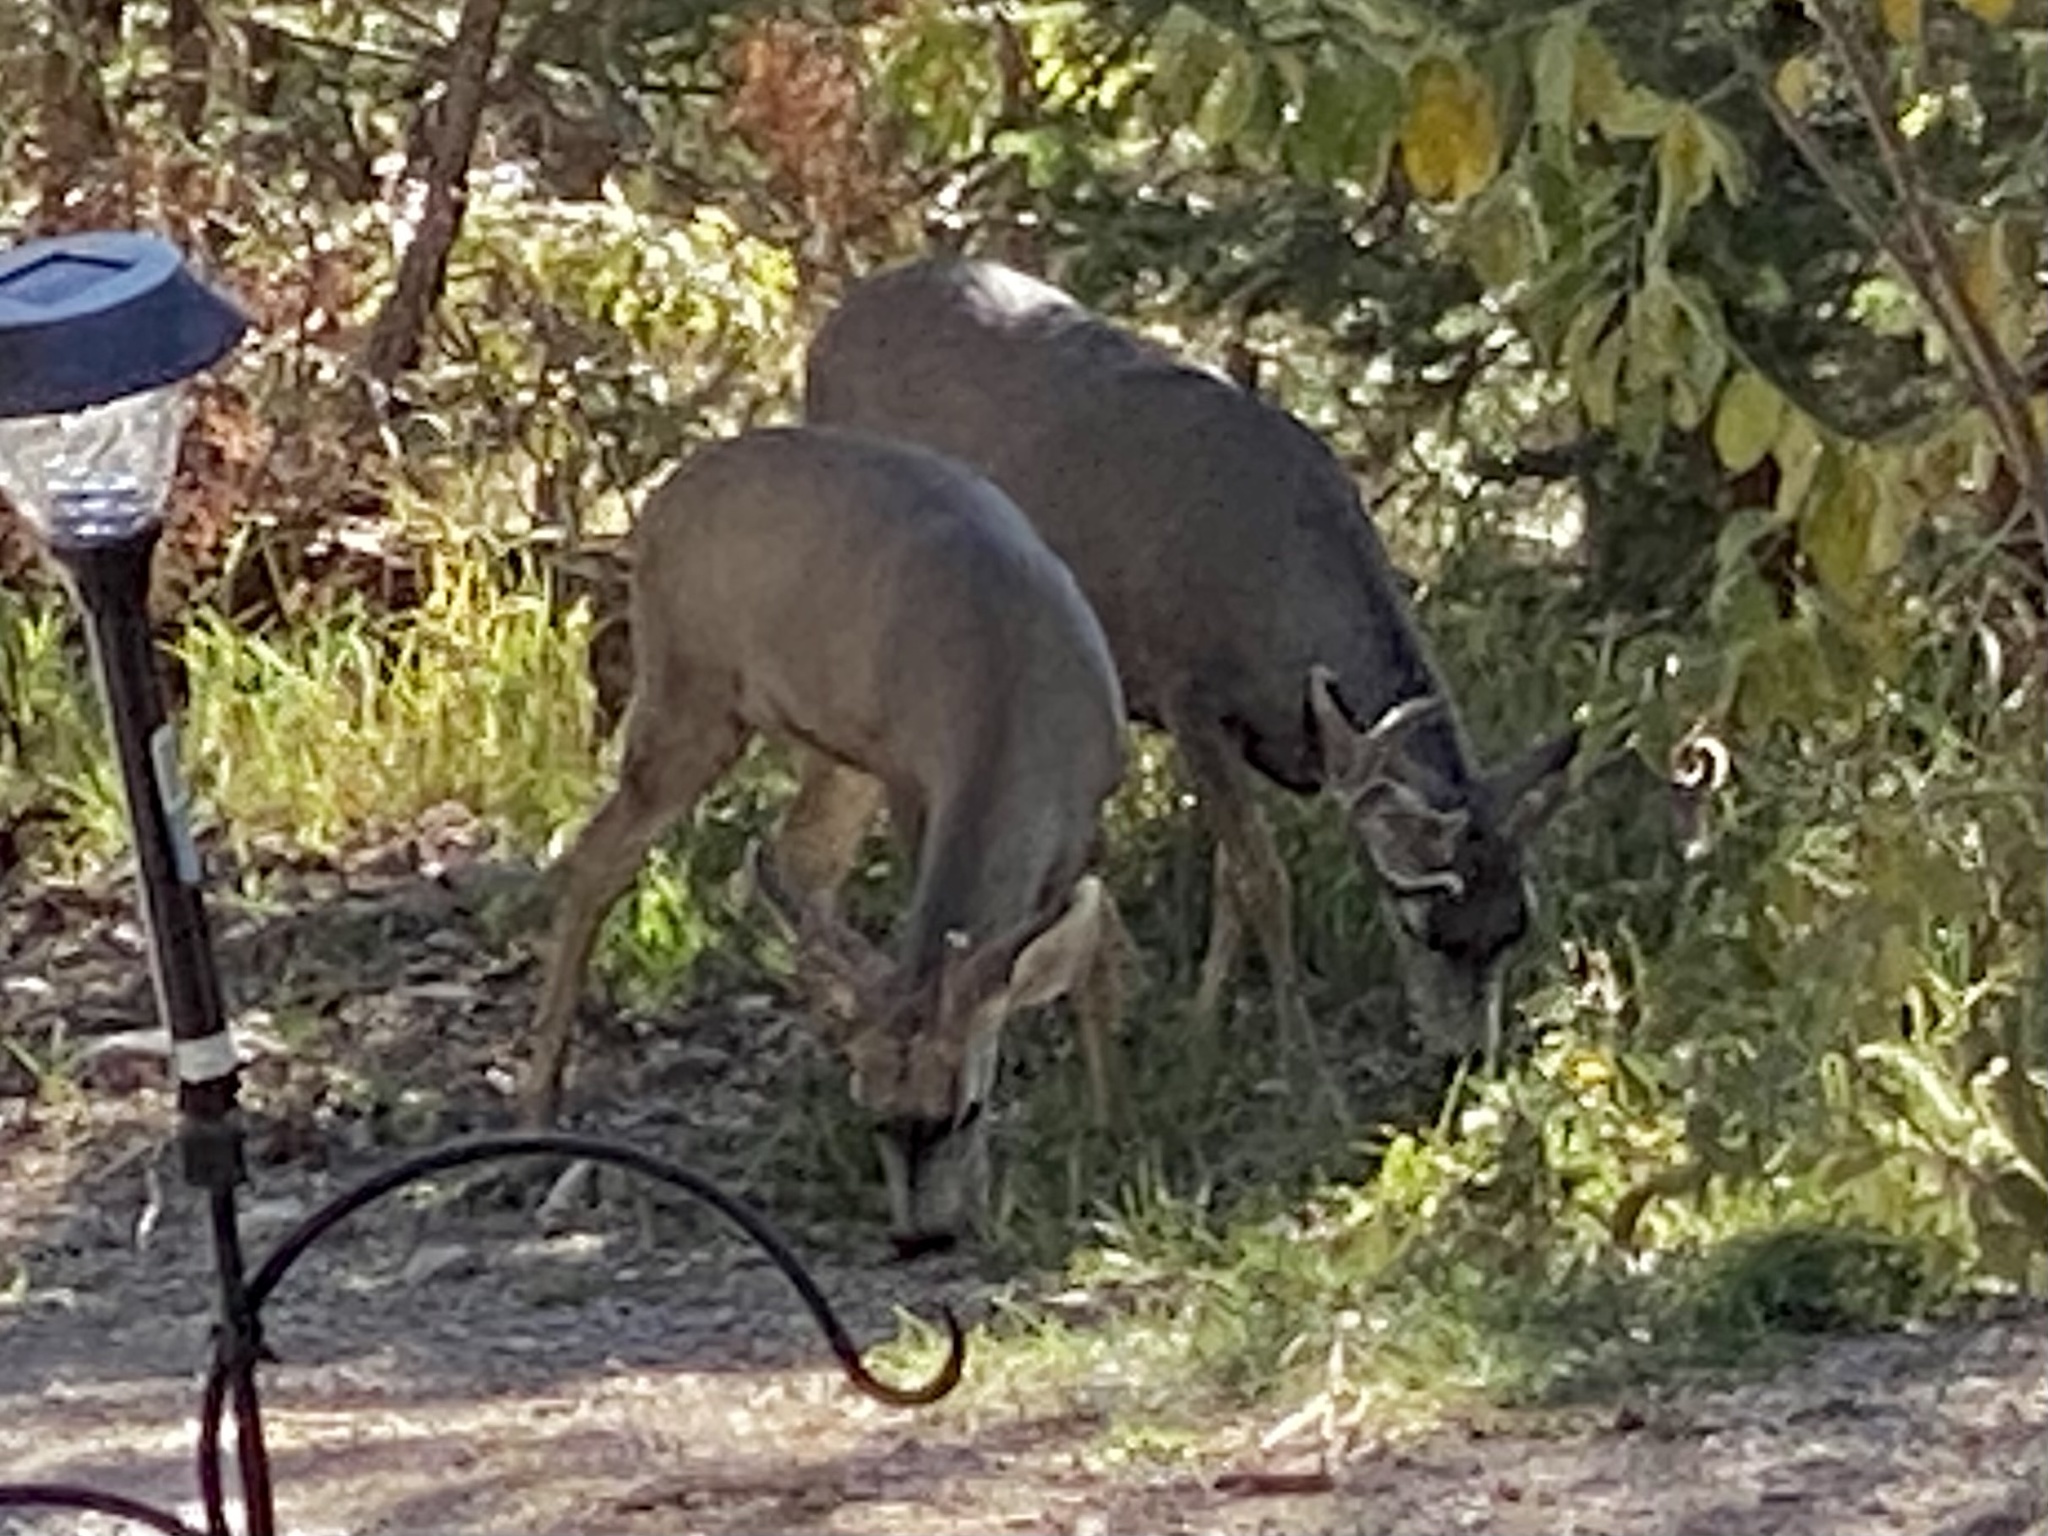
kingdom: Animalia
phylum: Chordata
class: Mammalia
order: Artiodactyla
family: Cervidae
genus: Odocoileus
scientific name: Odocoileus hemionus
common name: Mule deer
